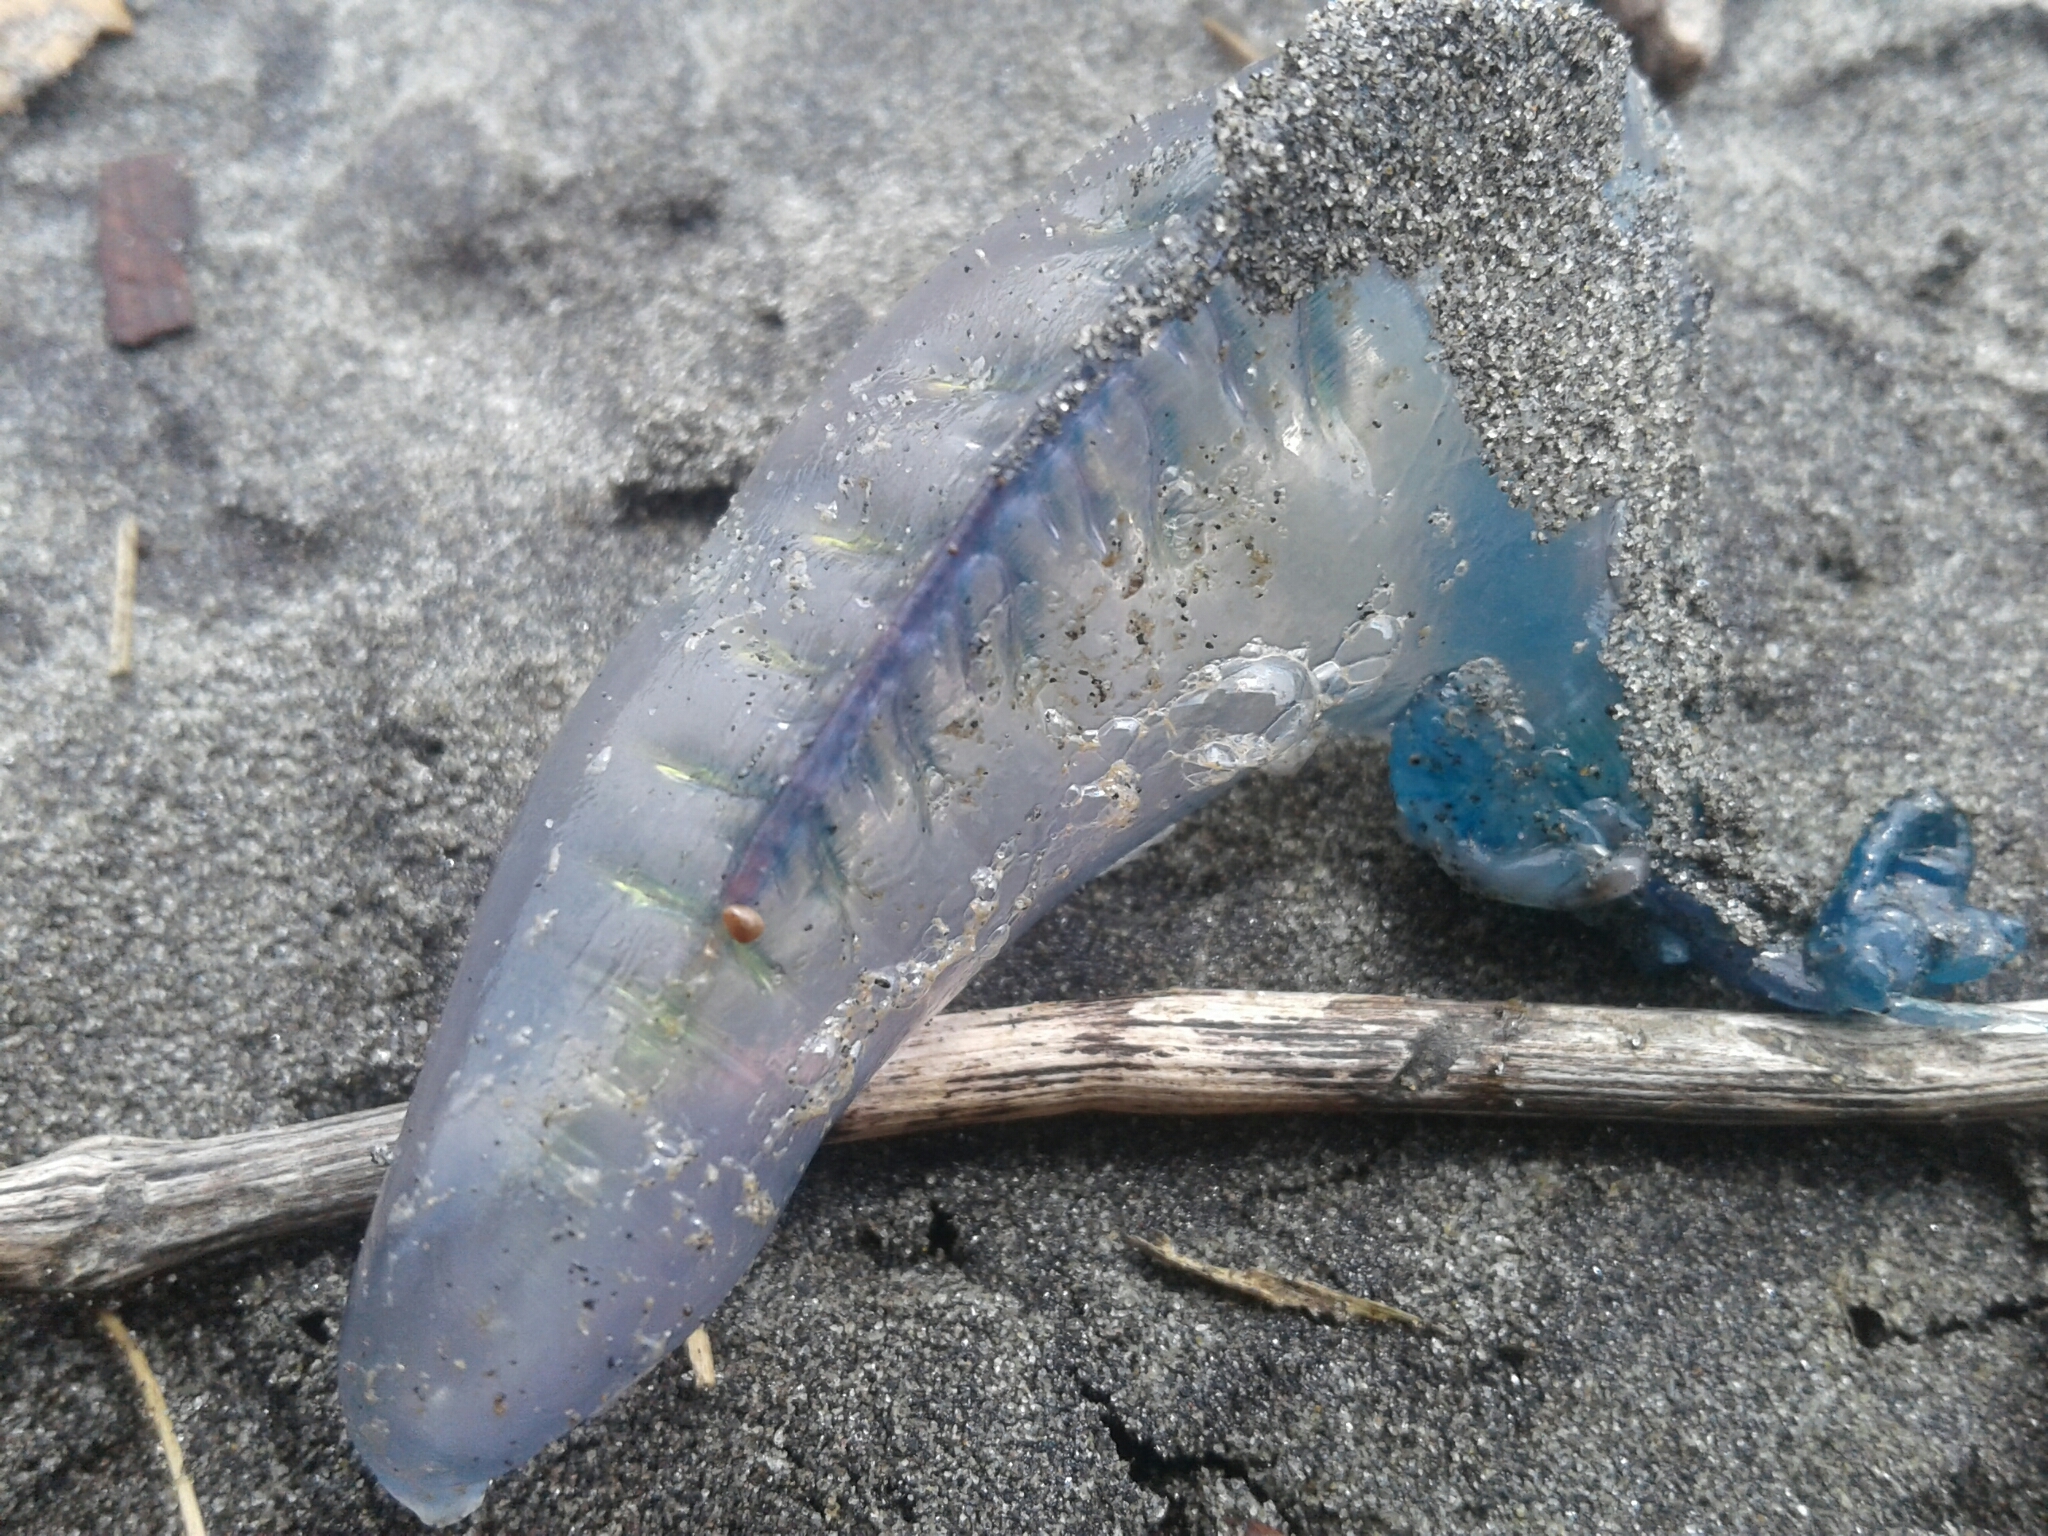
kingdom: Animalia
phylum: Cnidaria
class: Hydrozoa
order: Siphonophorae
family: Physaliidae
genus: Physalia
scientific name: Physalia physalis
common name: Portuguese man-of-war
